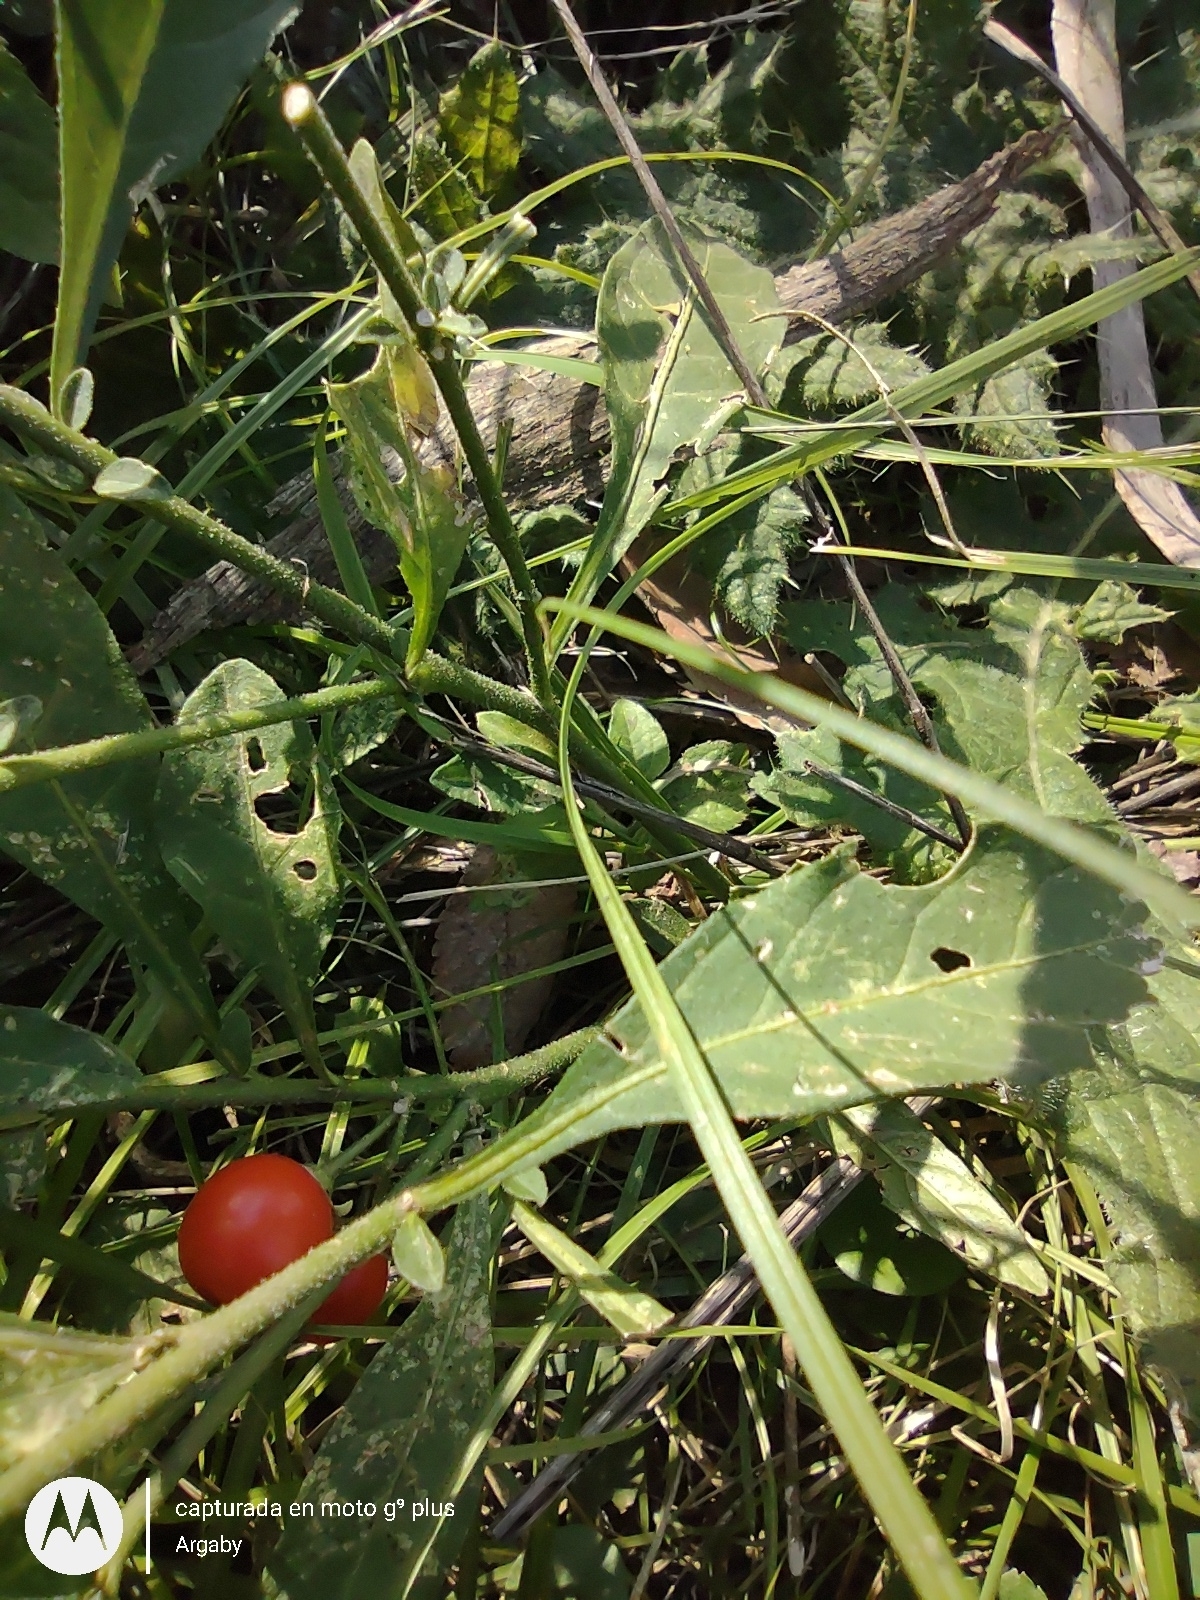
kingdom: Plantae
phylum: Tracheophyta
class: Magnoliopsida
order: Solanales
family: Solanaceae
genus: Solanum
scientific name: Solanum pseudocapsicum
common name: Jerusalem cherry
